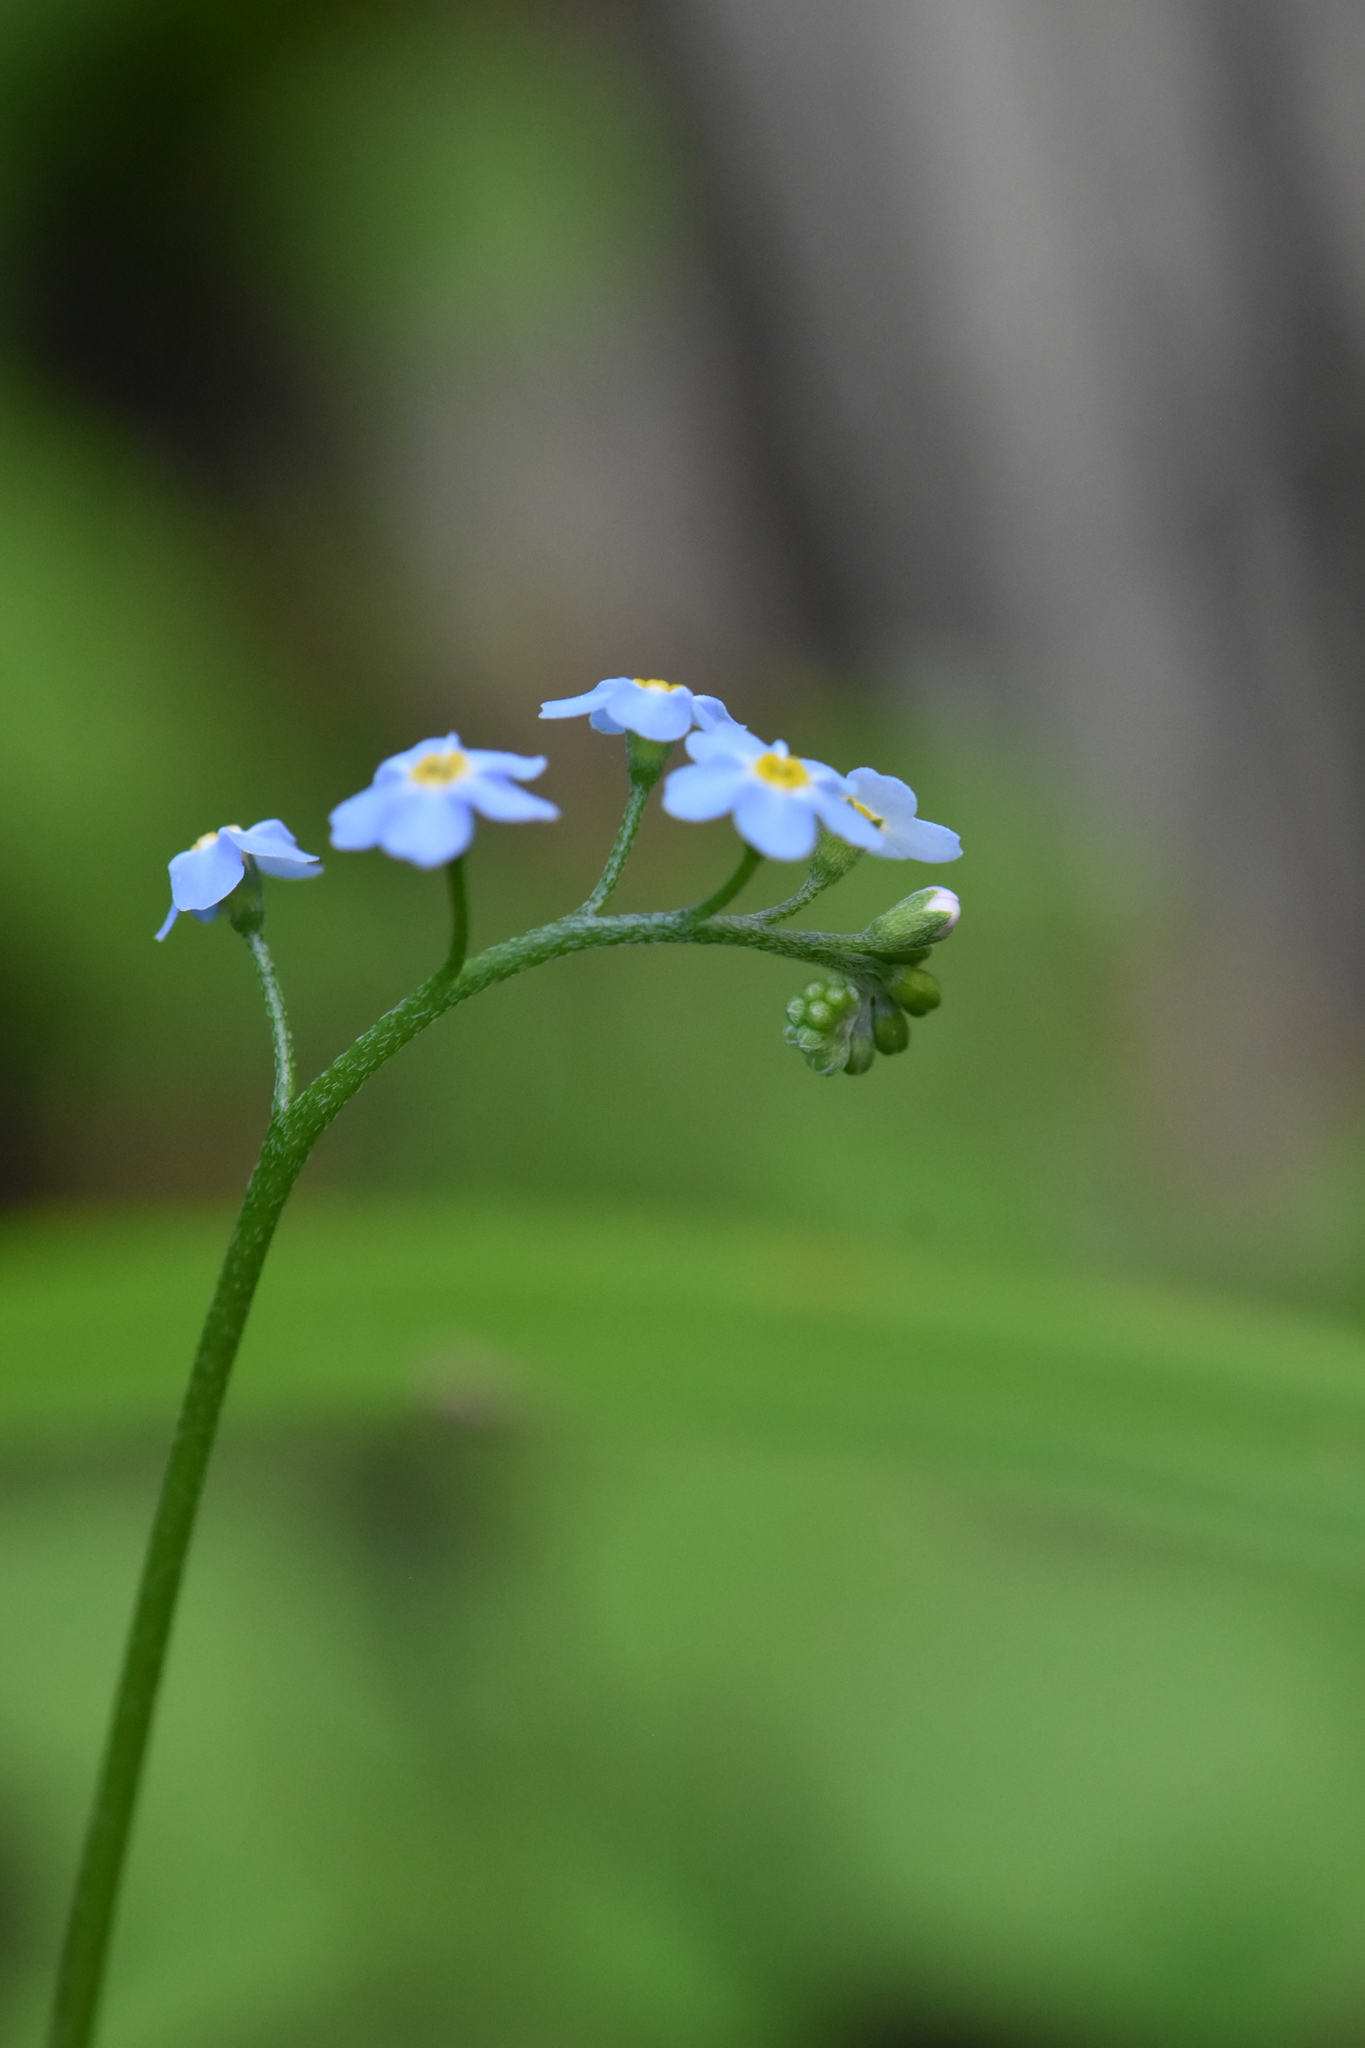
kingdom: Plantae
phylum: Tracheophyta
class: Magnoliopsida
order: Boraginales
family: Boraginaceae
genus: Myosotis
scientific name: Myosotis scorpioides
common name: Water forget-me-not
